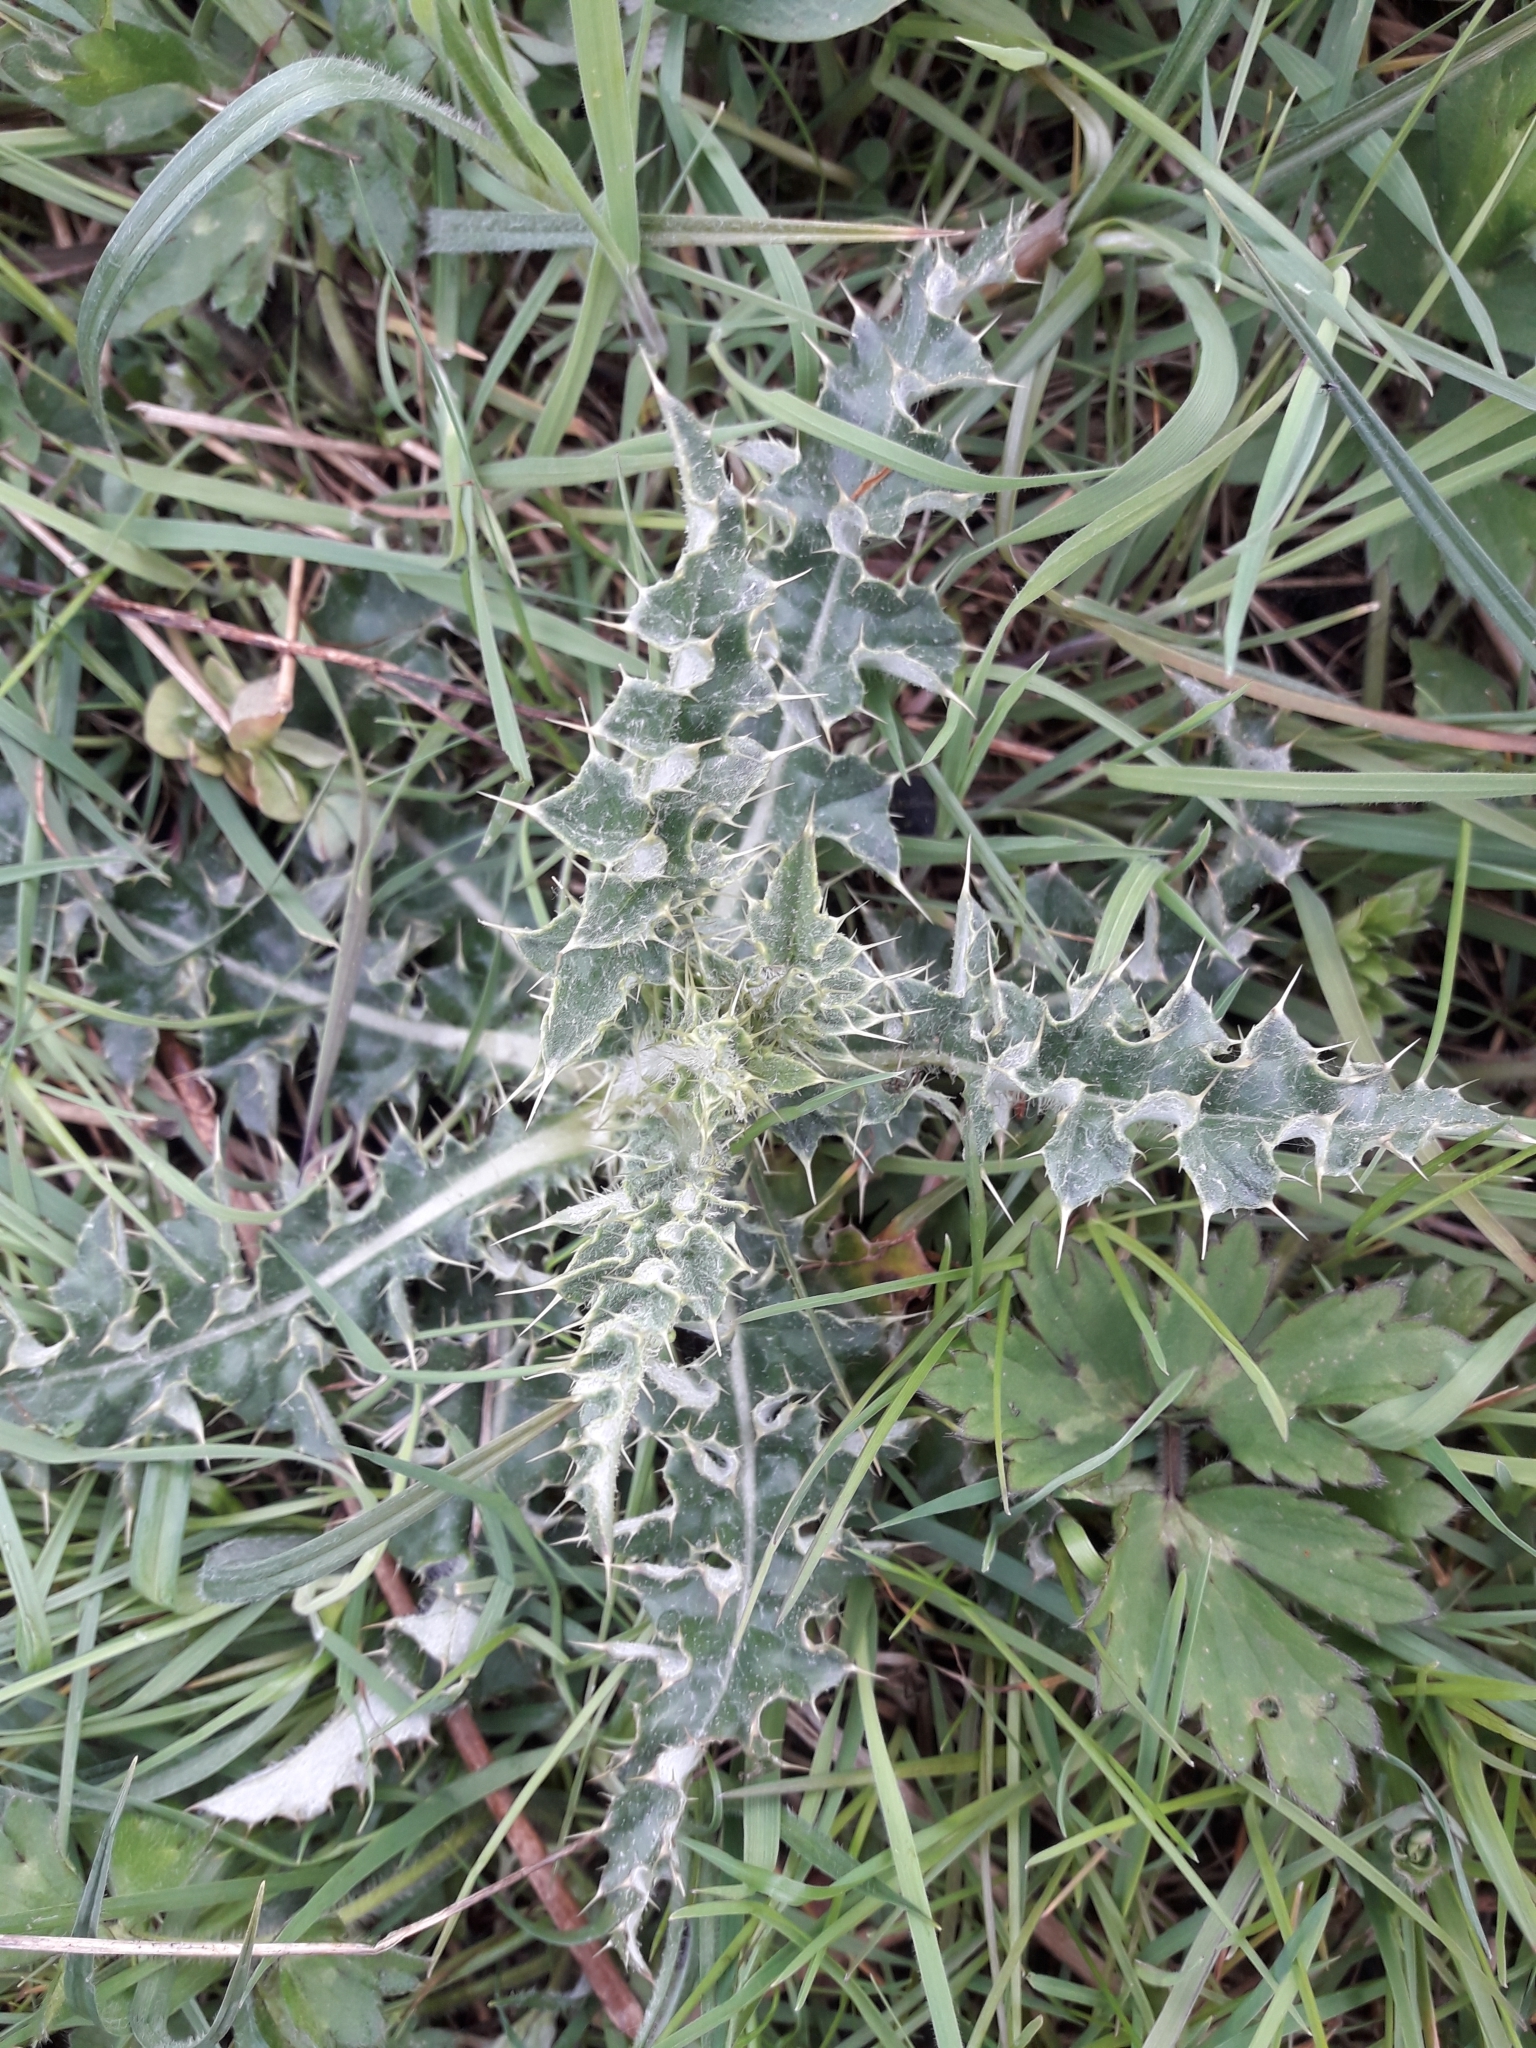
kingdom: Plantae
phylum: Tracheophyta
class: Magnoliopsida
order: Asterales
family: Asteraceae
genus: Cirsium
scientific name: Cirsium arvense
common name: Creeping thistle
